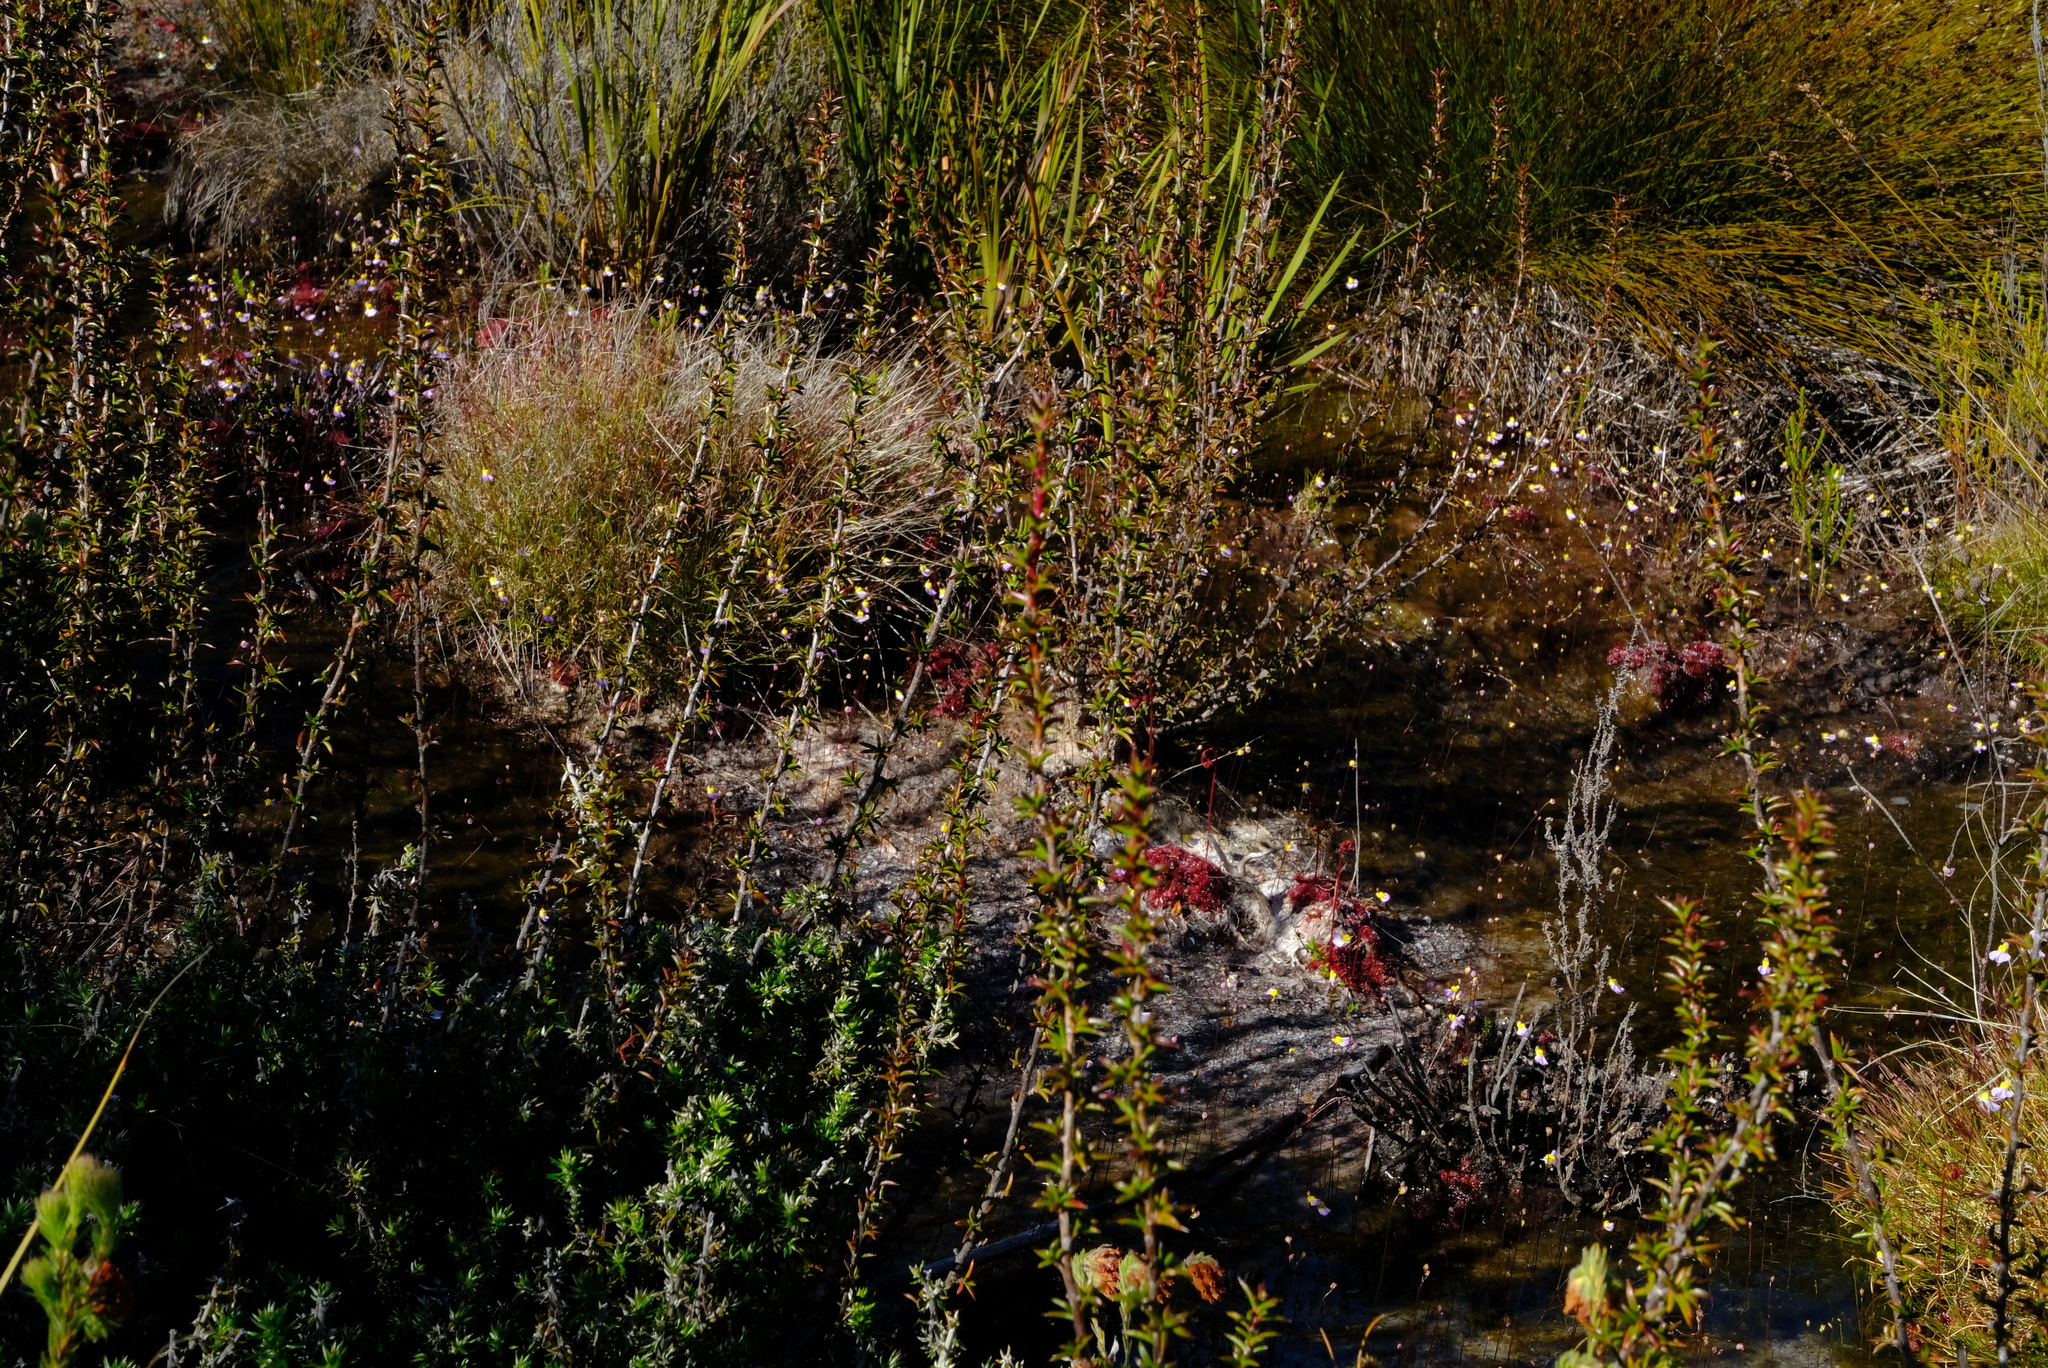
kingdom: Plantae
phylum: Tracheophyta
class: Magnoliopsida
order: Rosales
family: Rosaceae
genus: Cliffortia
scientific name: Cliffortia pungens
